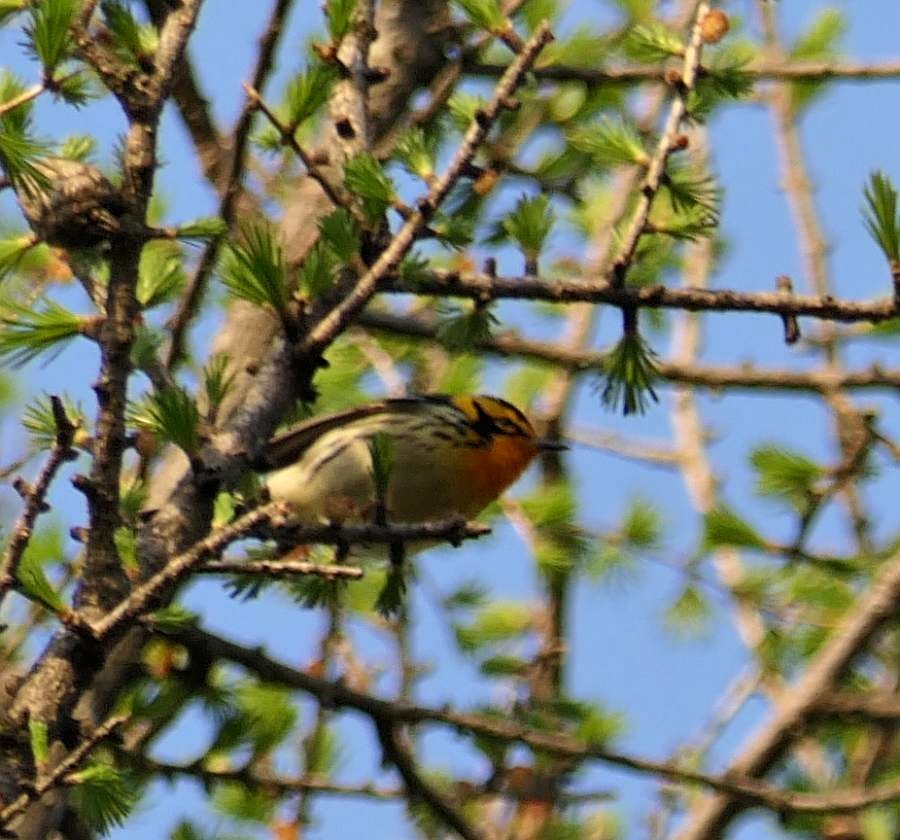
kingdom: Animalia
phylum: Chordata
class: Aves
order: Passeriformes
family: Parulidae
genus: Setophaga
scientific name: Setophaga fusca
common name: Blackburnian warbler
